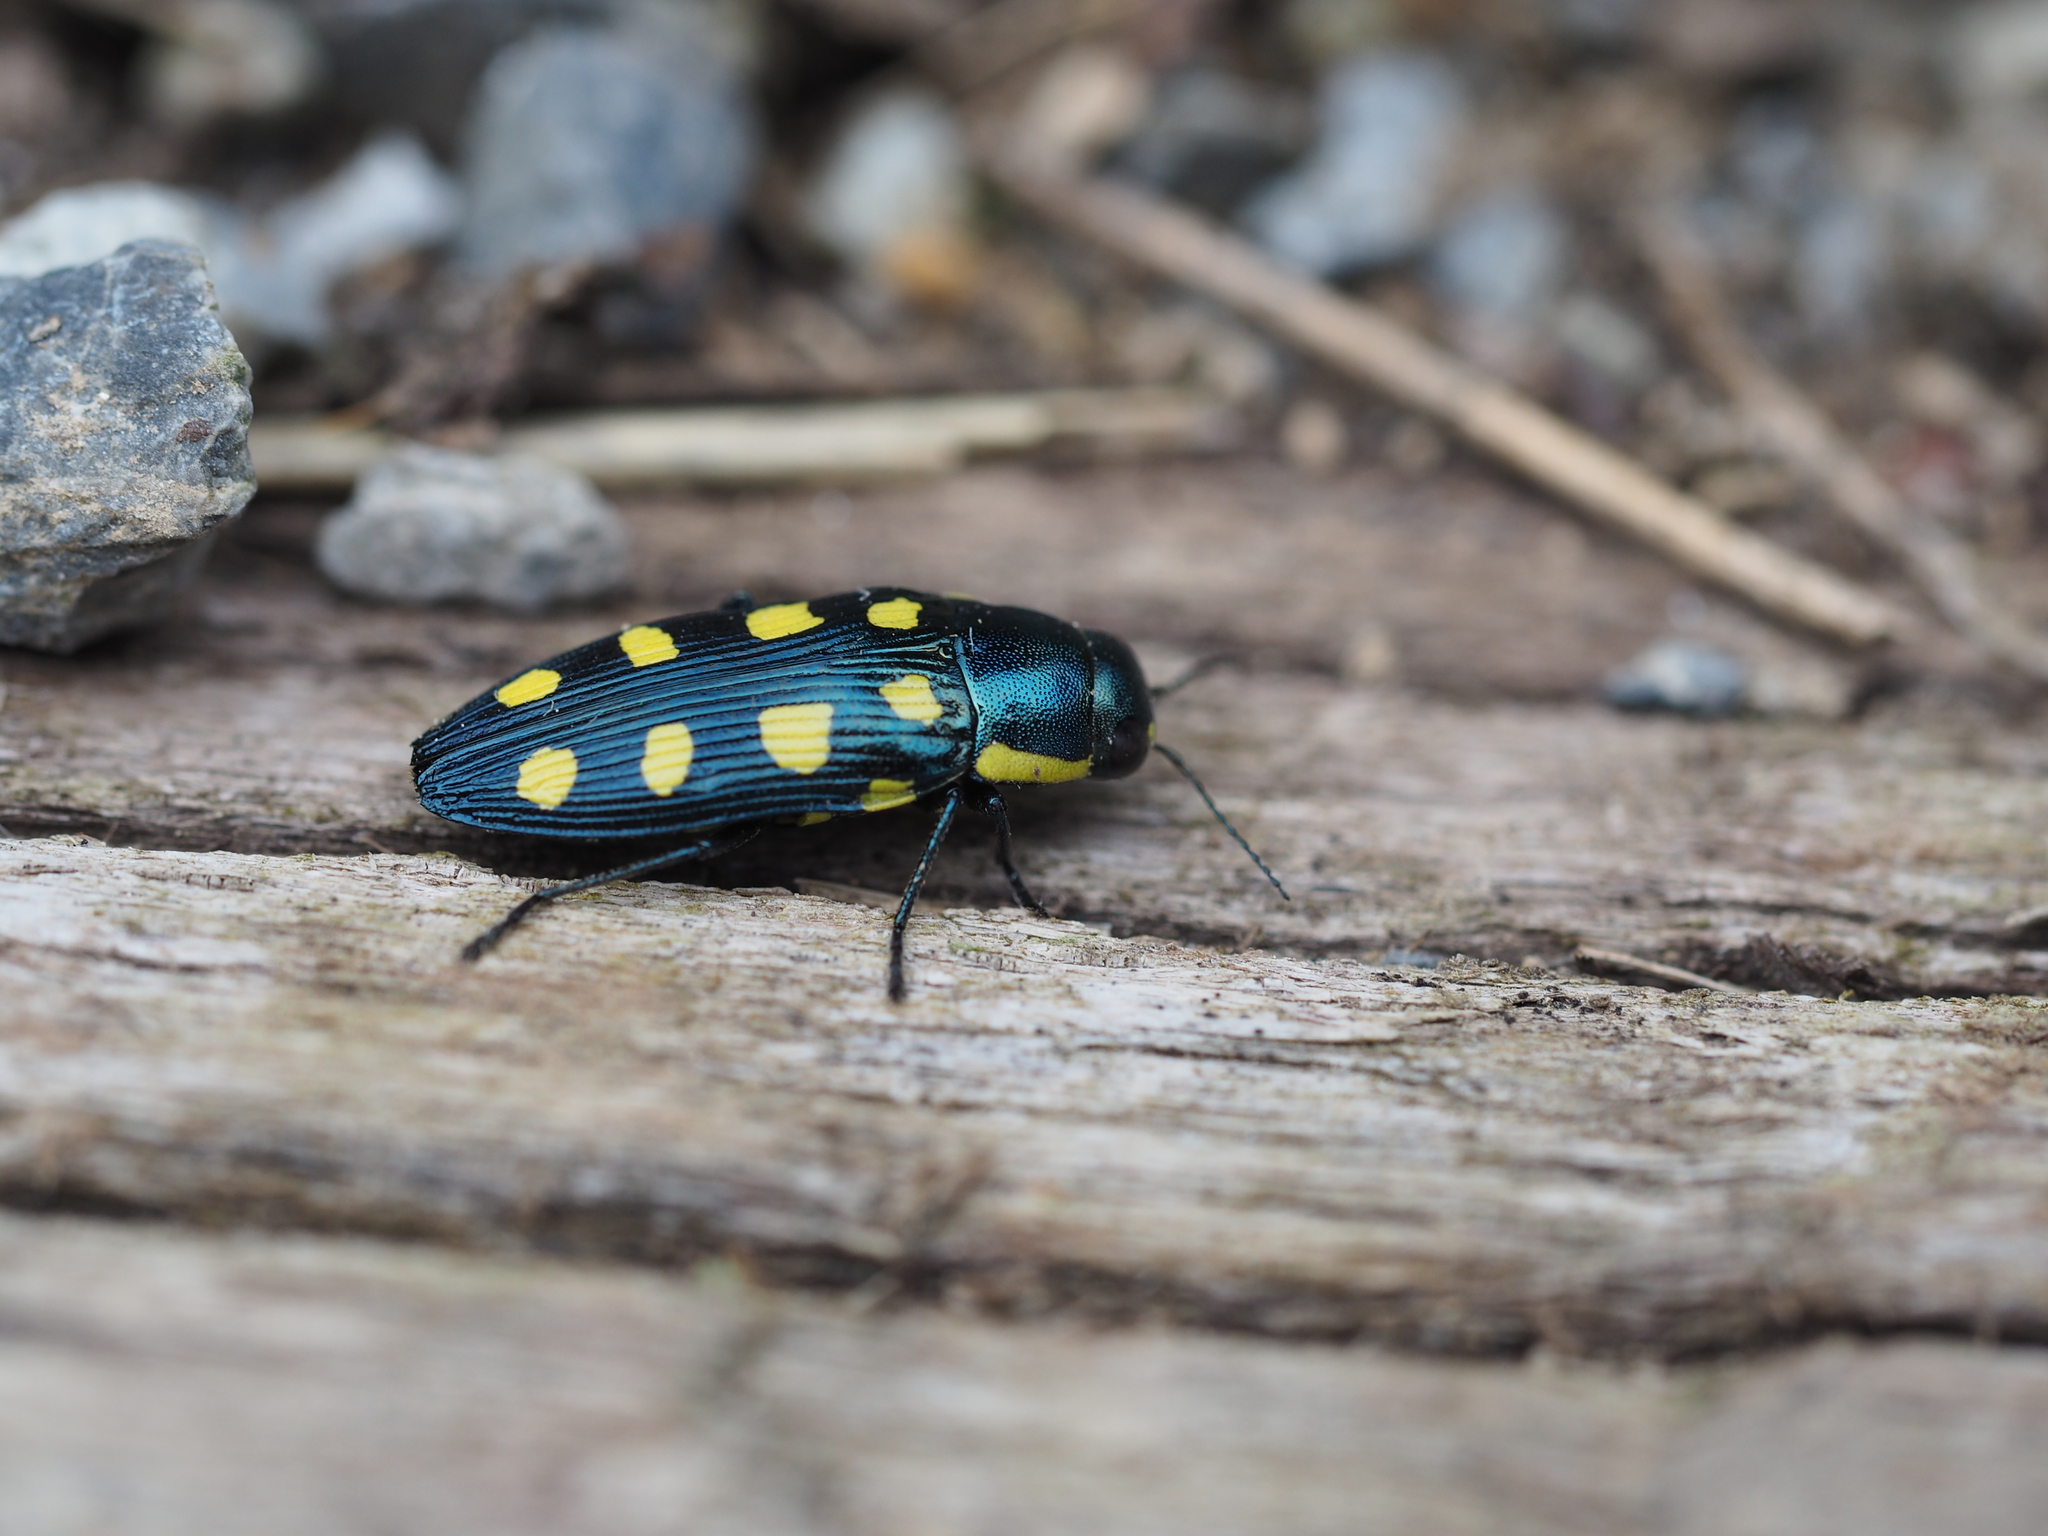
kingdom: Animalia
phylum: Arthropoda
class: Insecta
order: Coleoptera
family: Buprestidae
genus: Buprestis
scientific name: Buprestis octoguttata
